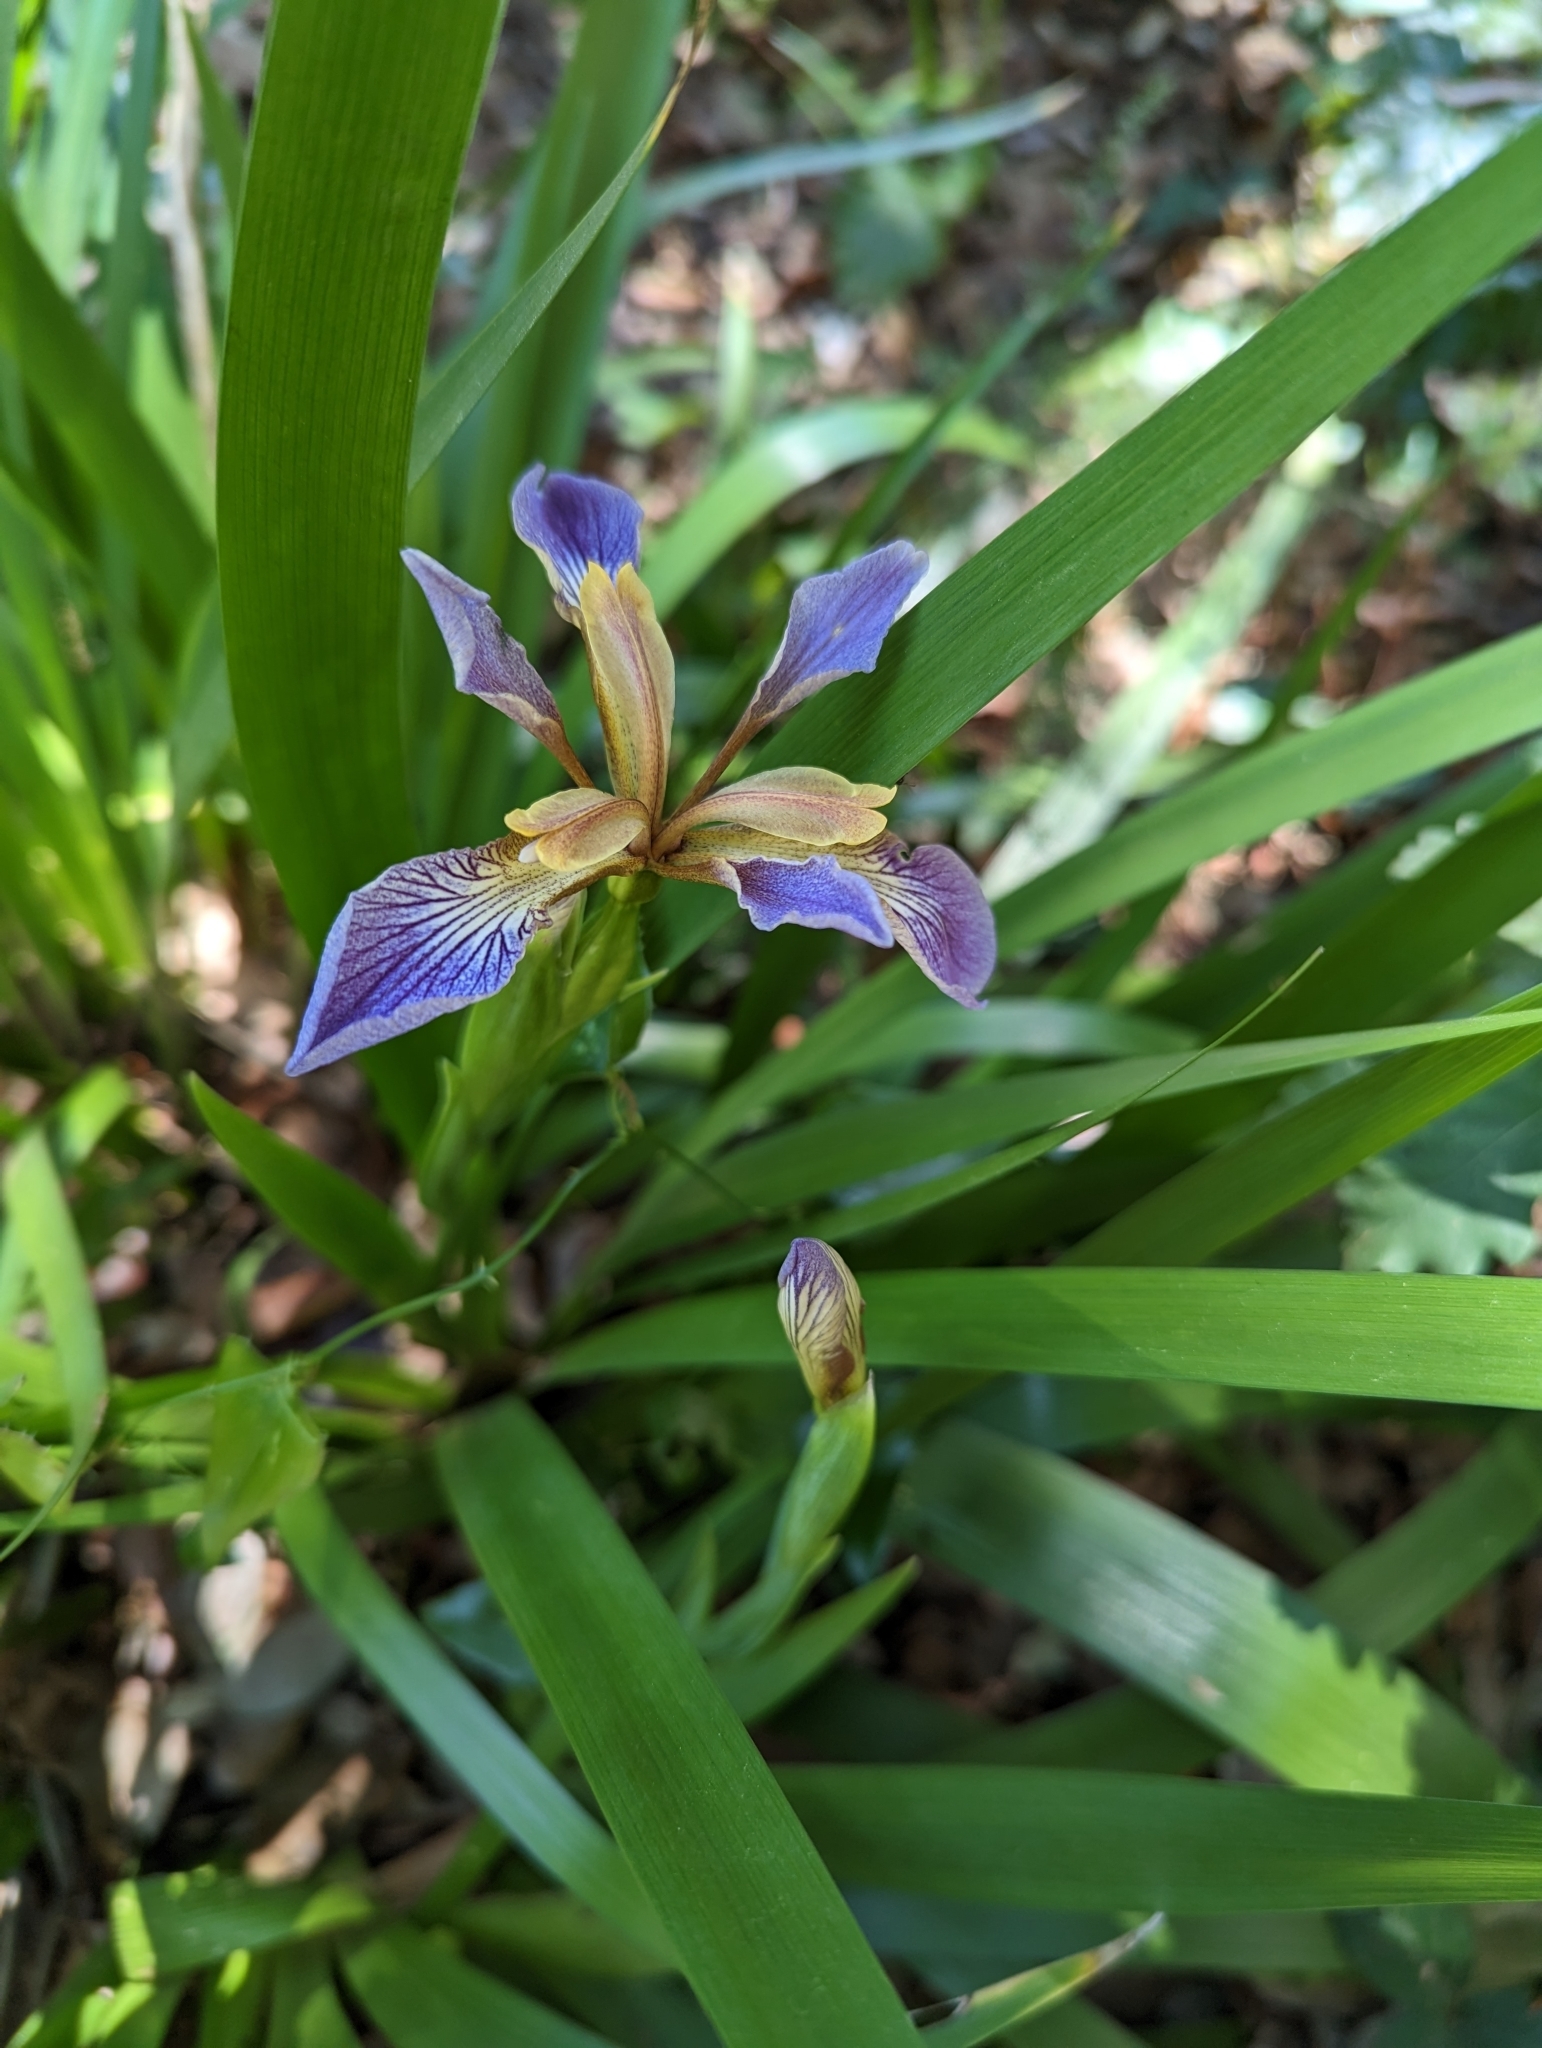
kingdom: Plantae
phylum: Tracheophyta
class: Liliopsida
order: Asparagales
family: Iridaceae
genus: Iris
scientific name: Iris foetidissima
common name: Stinking iris
